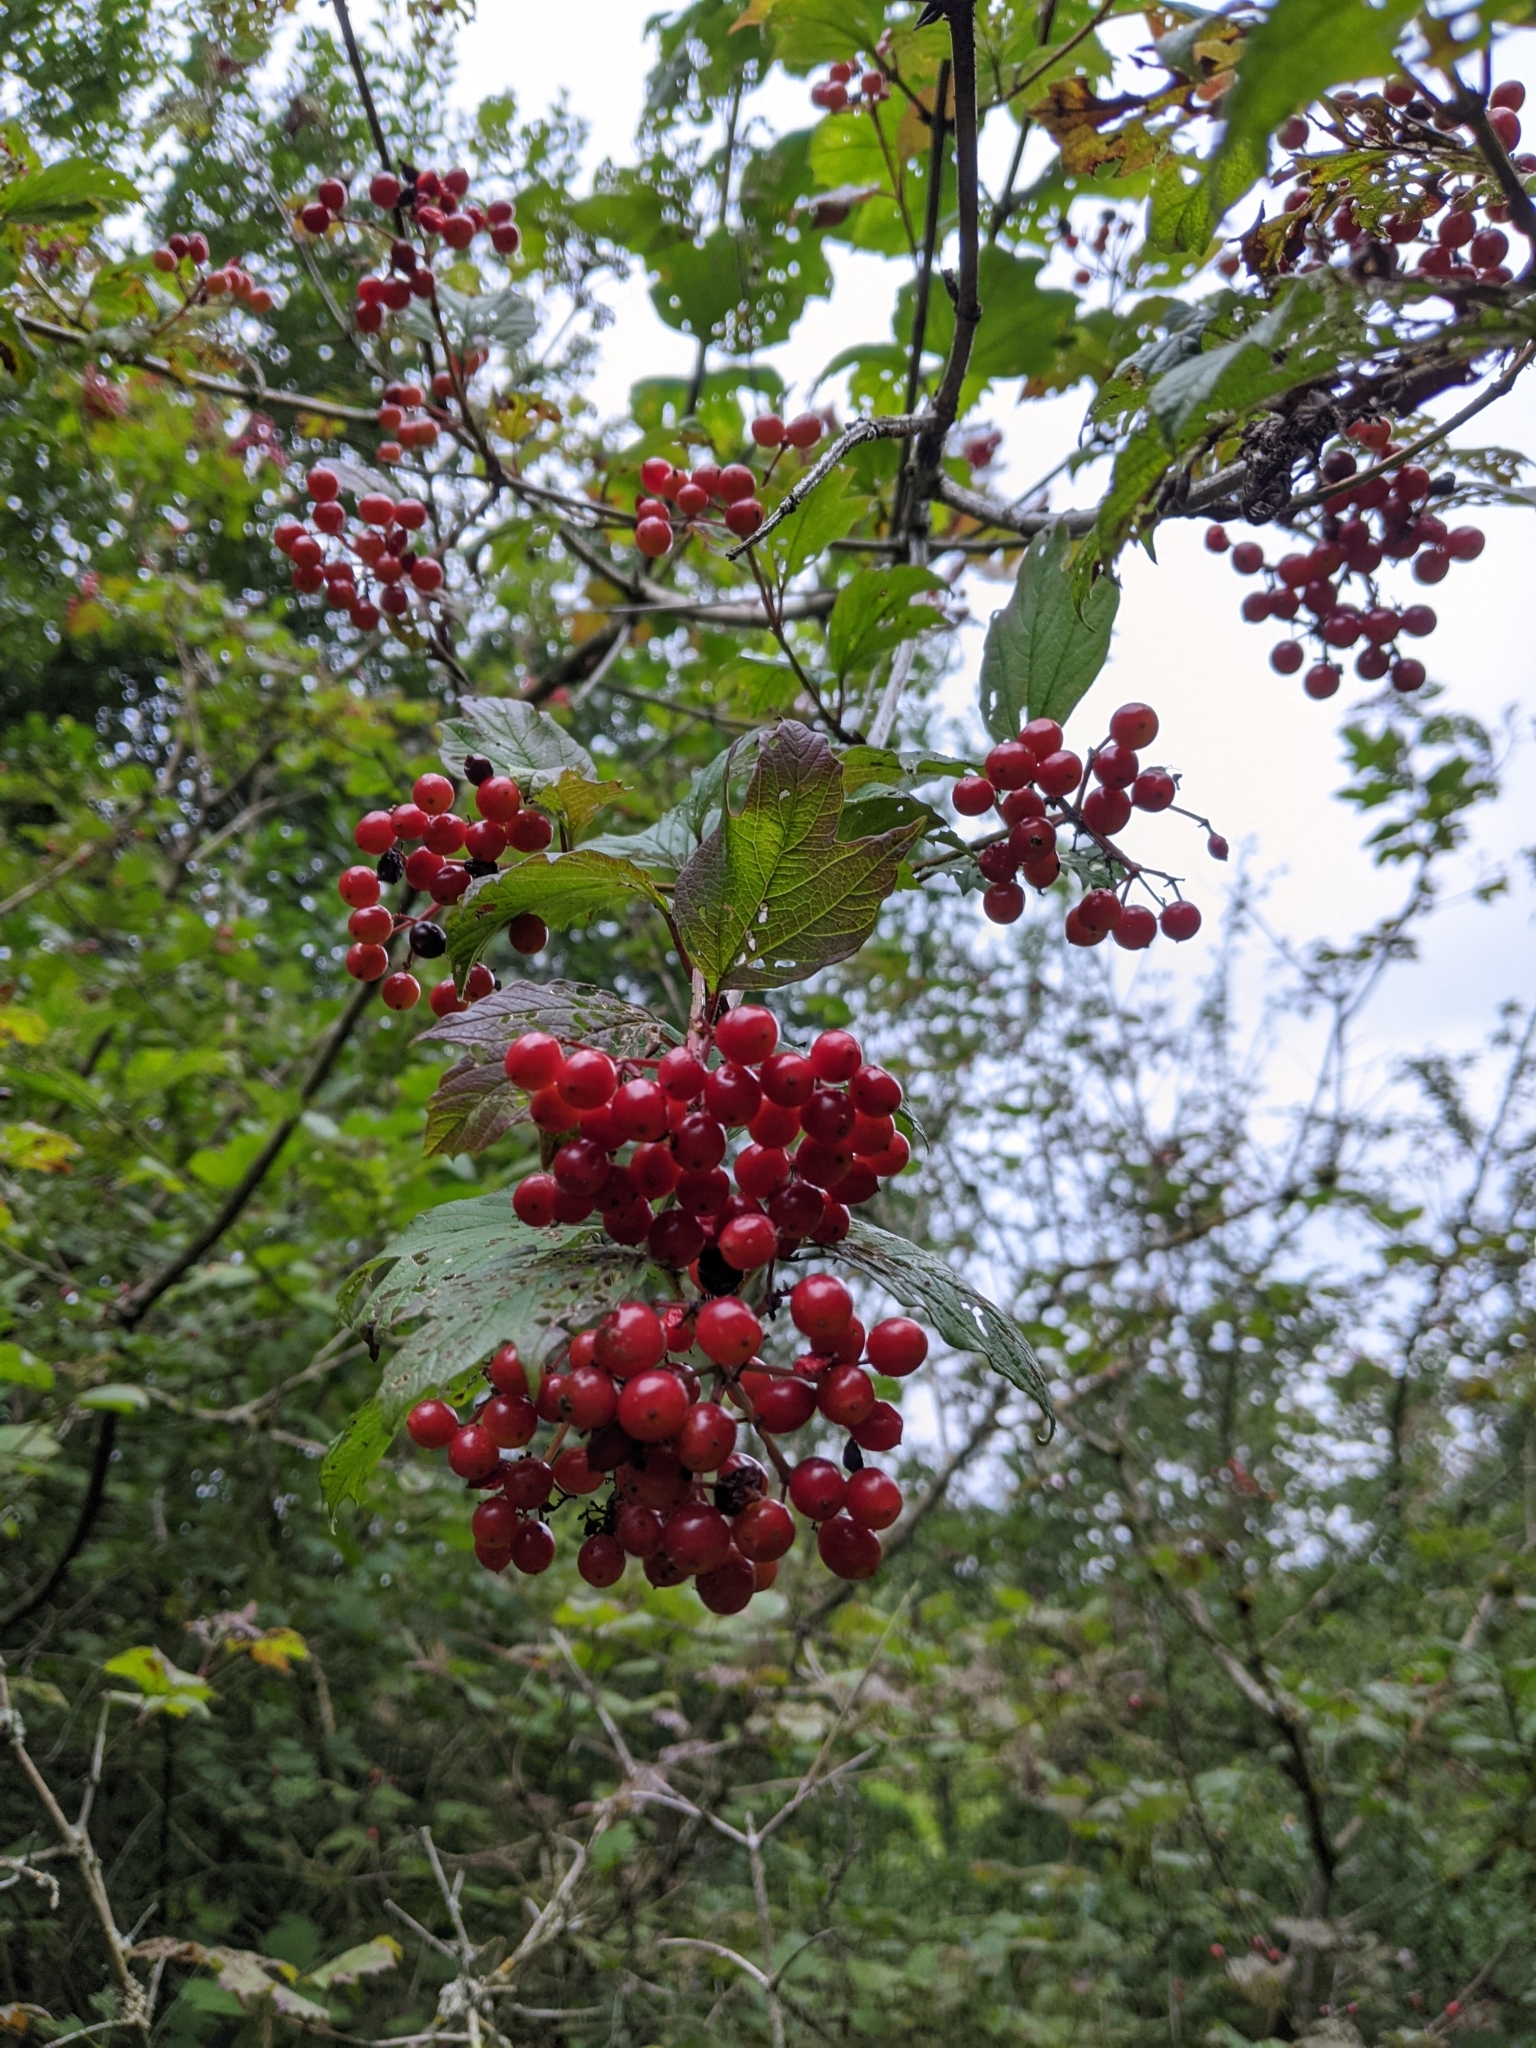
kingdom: Plantae
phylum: Tracheophyta
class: Magnoliopsida
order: Dipsacales
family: Viburnaceae
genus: Viburnum
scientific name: Viburnum opulus
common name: Guelder-rose
